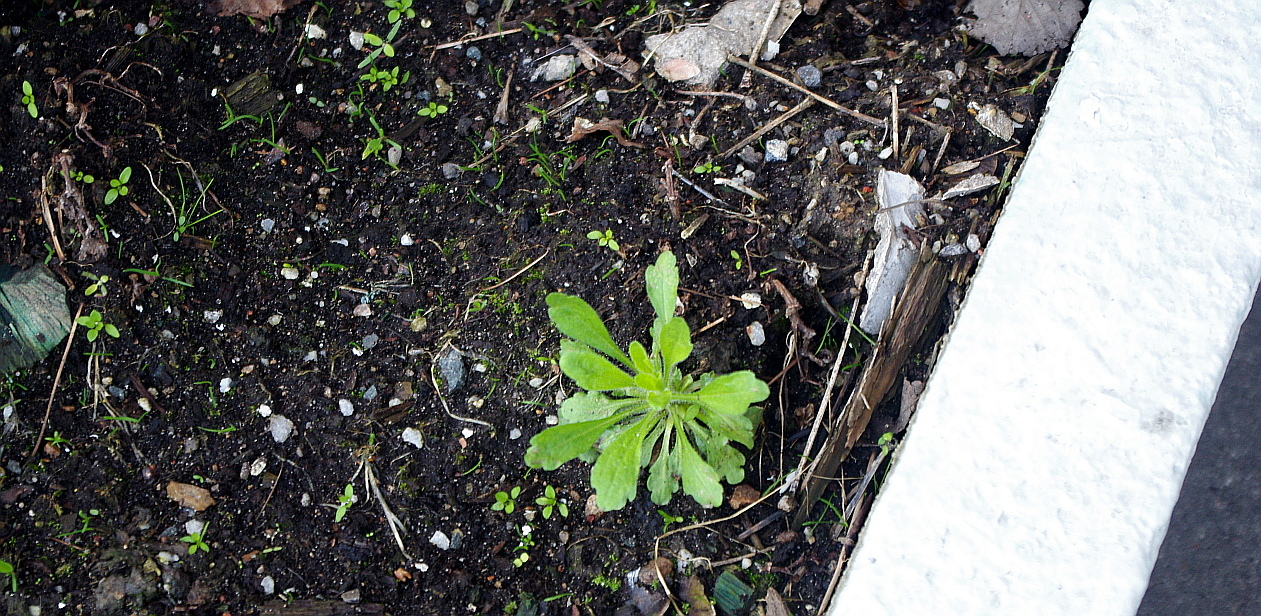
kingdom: Plantae
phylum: Tracheophyta
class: Magnoliopsida
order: Asterales
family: Asteraceae
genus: Erigeron
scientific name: Erigeron canadensis
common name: Canadian fleabane
